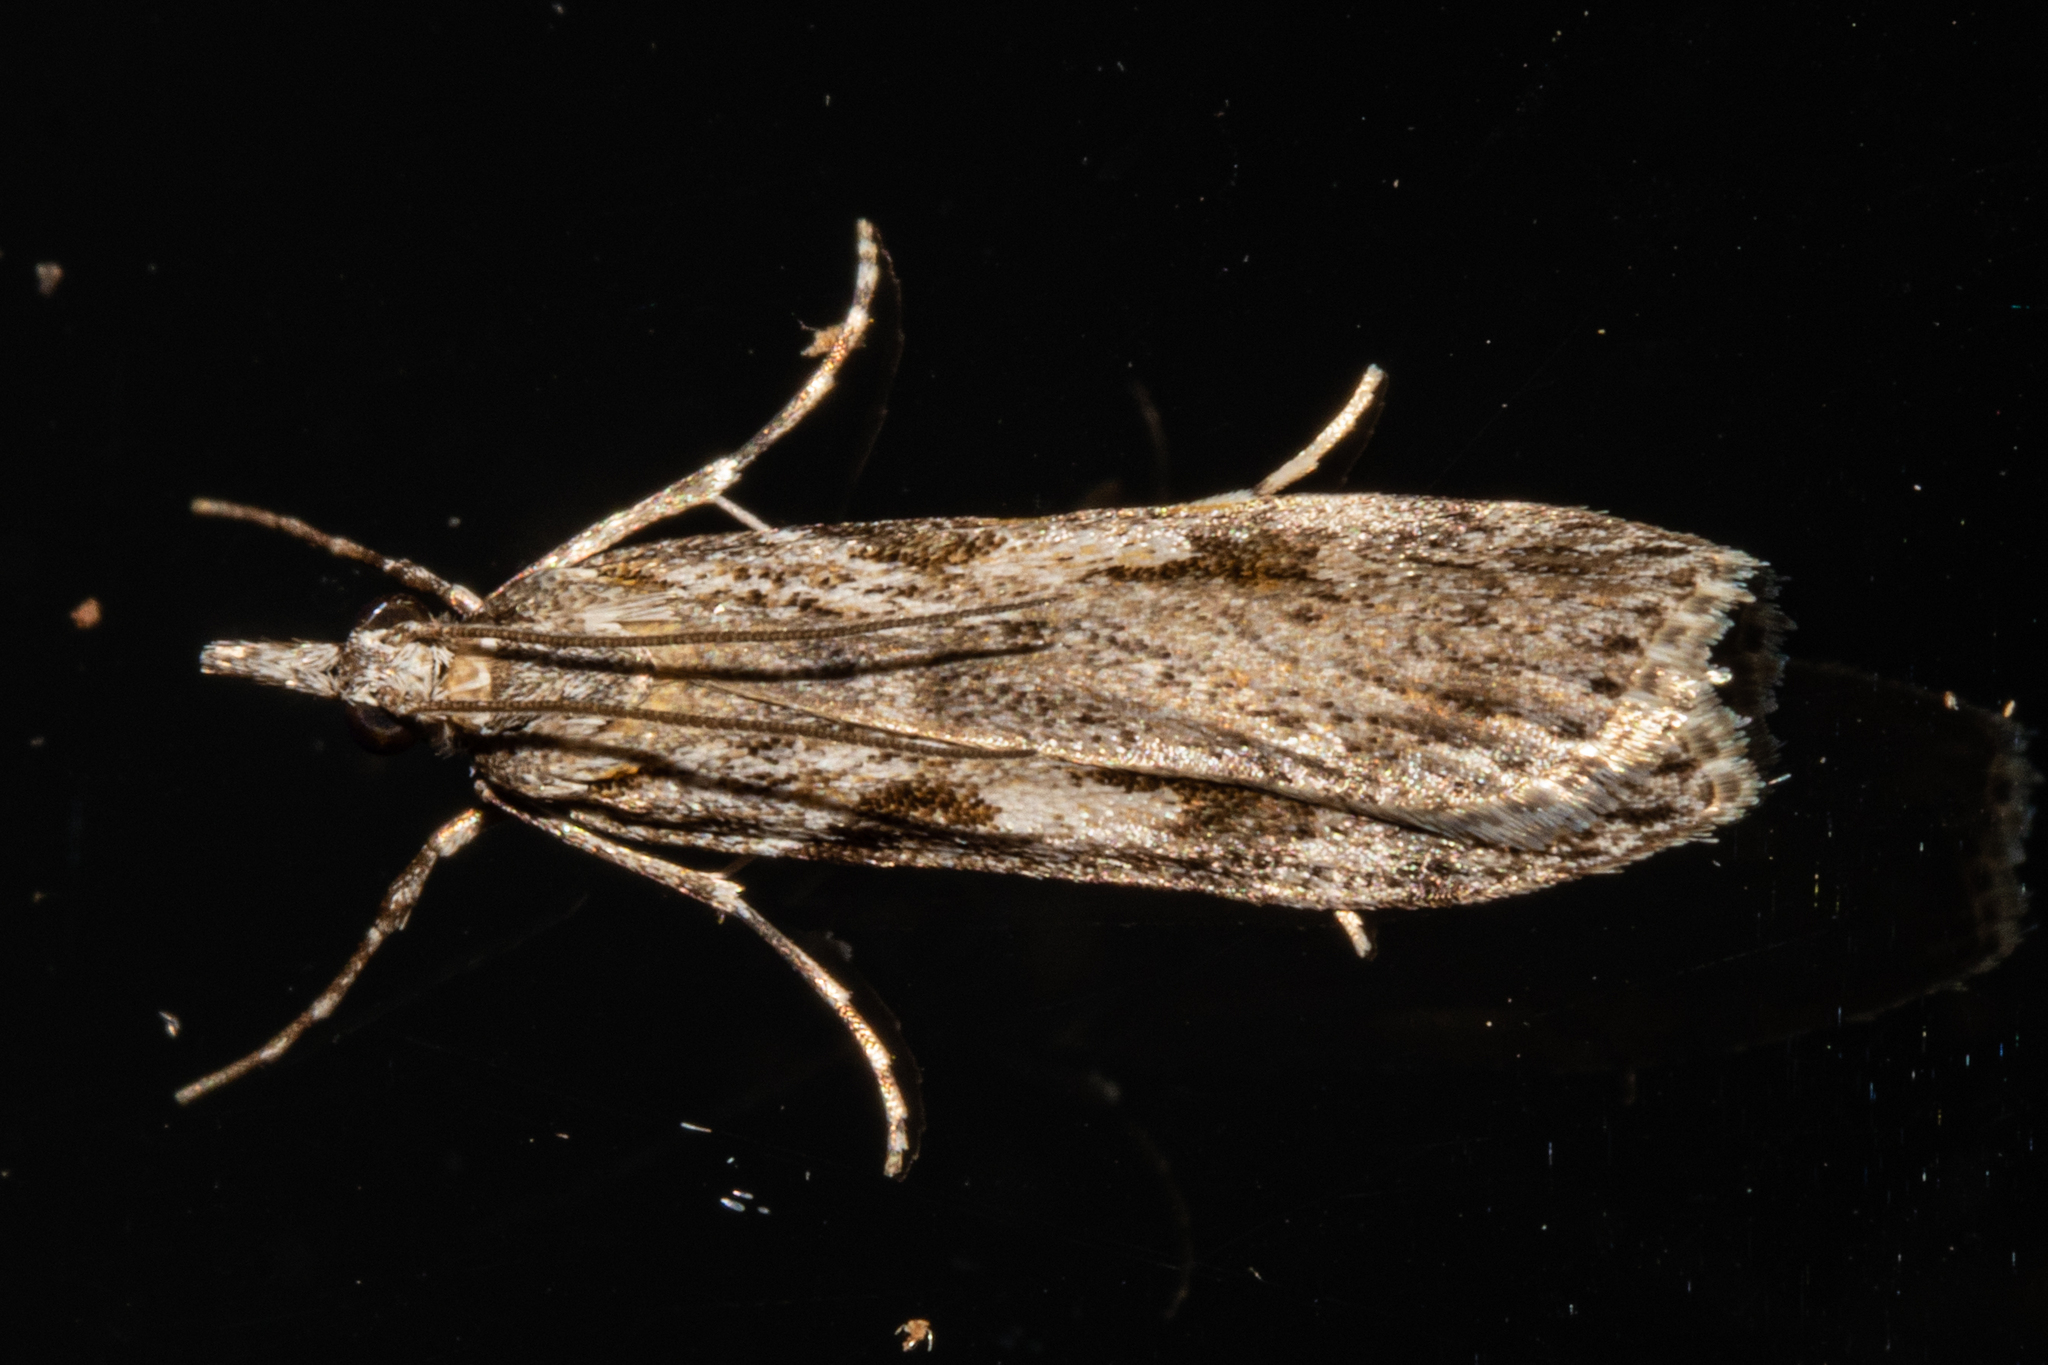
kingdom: Animalia
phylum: Arthropoda
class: Insecta
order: Lepidoptera
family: Crambidae
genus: Scoparia
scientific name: Scoparia halopis
